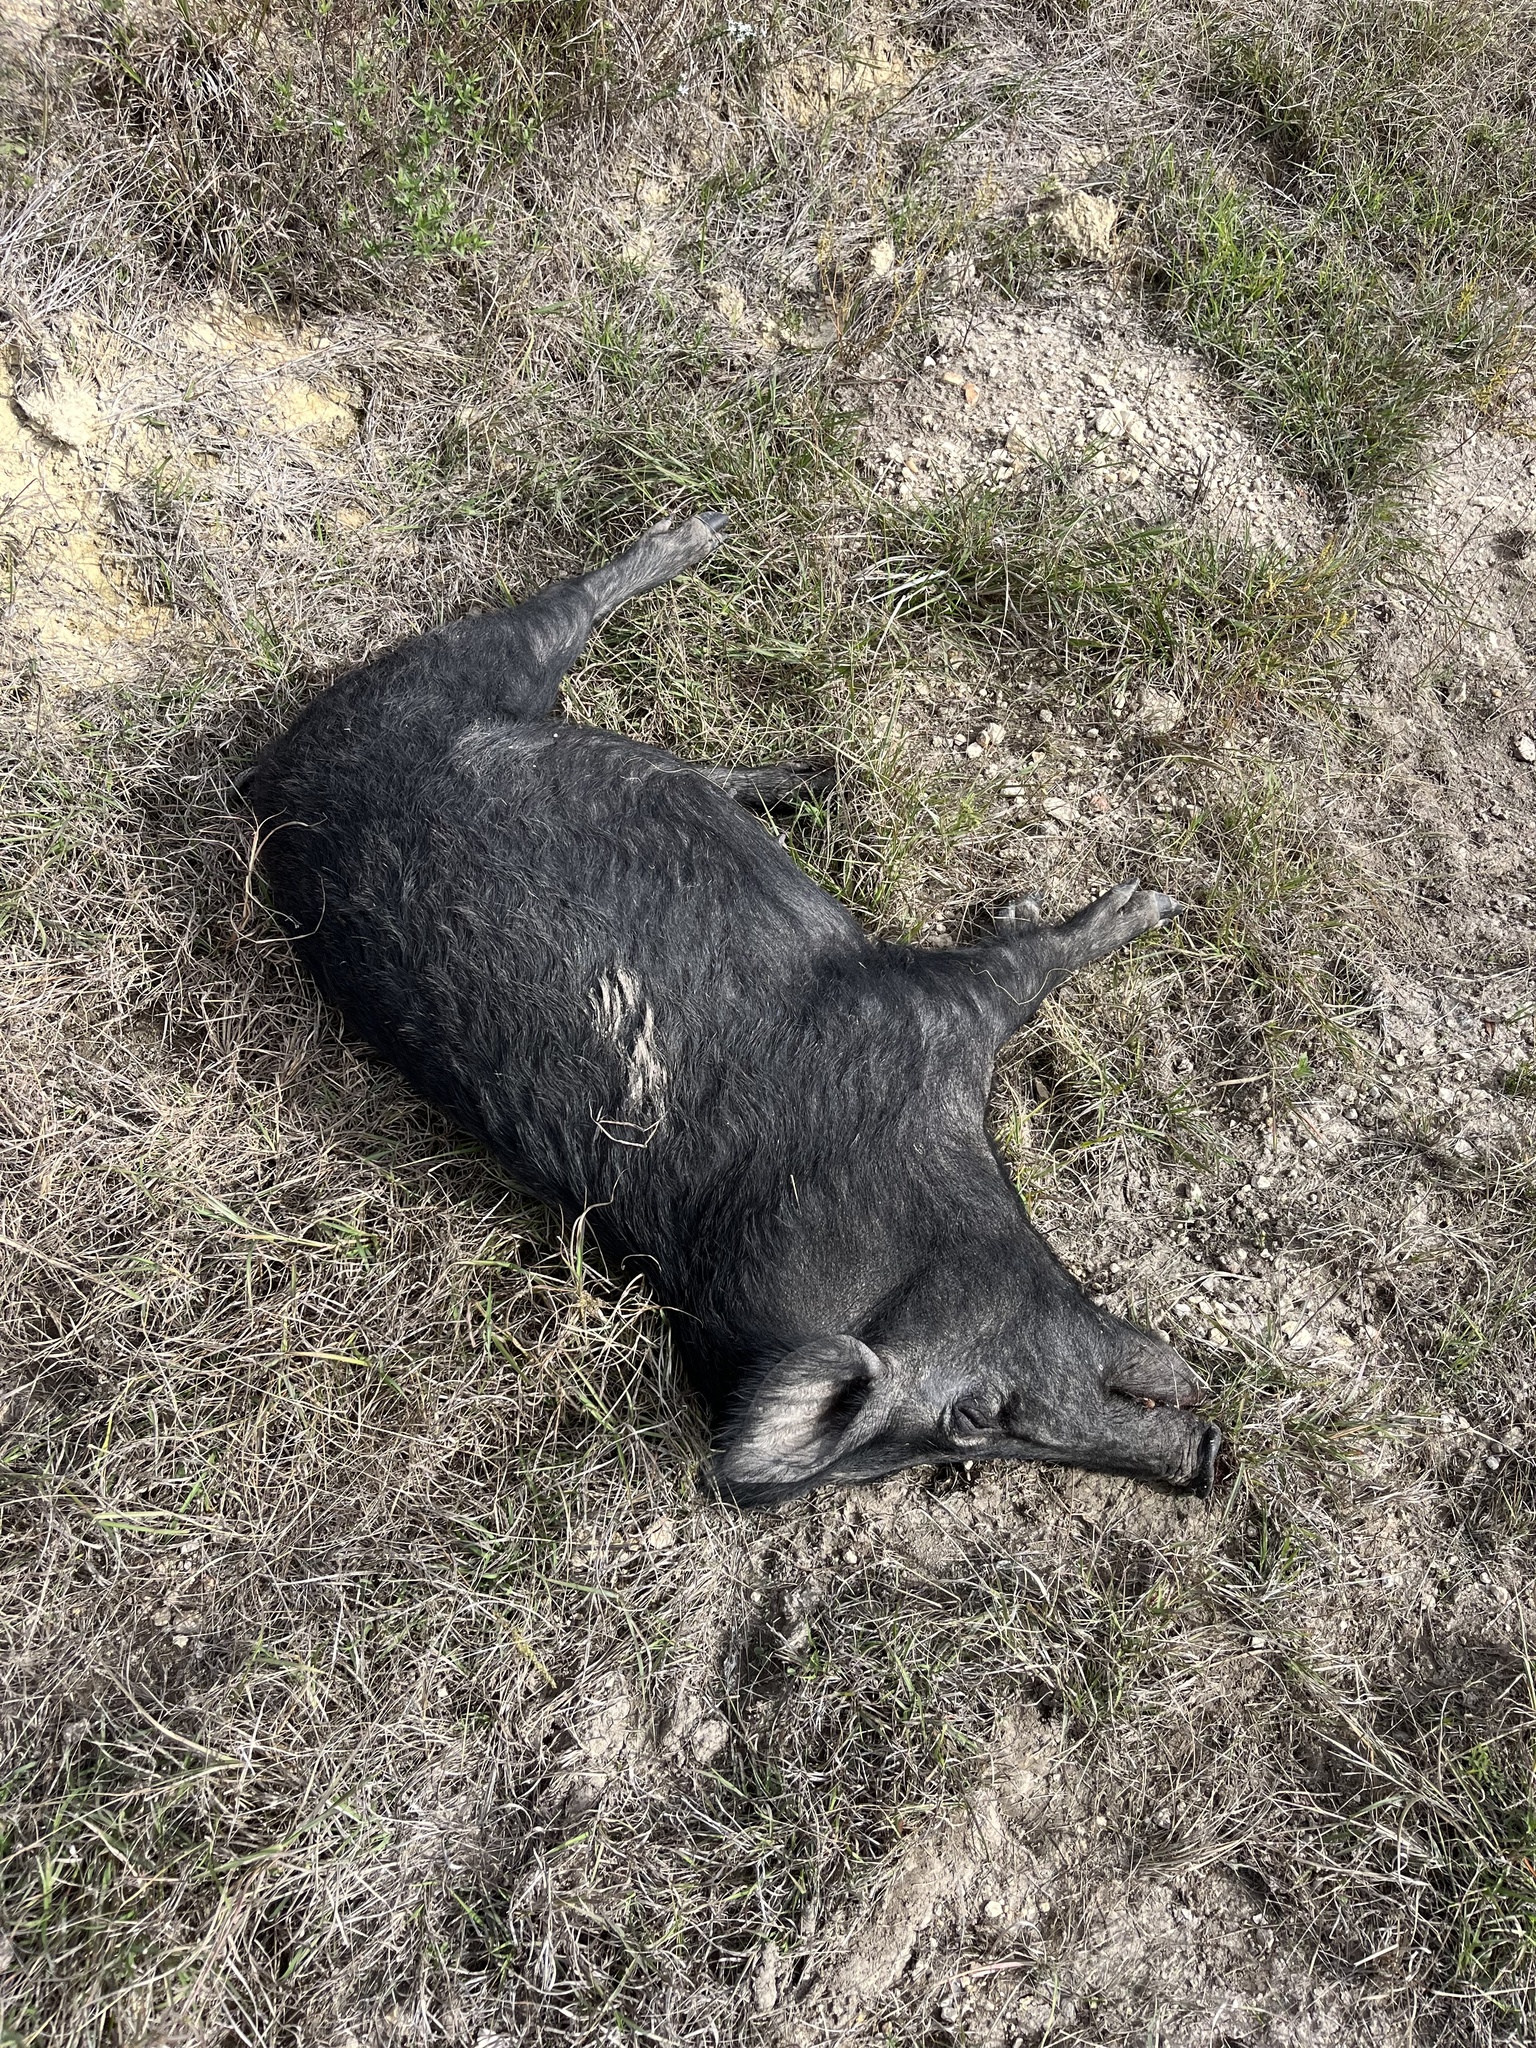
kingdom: Animalia
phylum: Chordata
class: Mammalia
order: Artiodactyla
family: Suidae
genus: Sus
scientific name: Sus scrofa
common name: Wild boar
